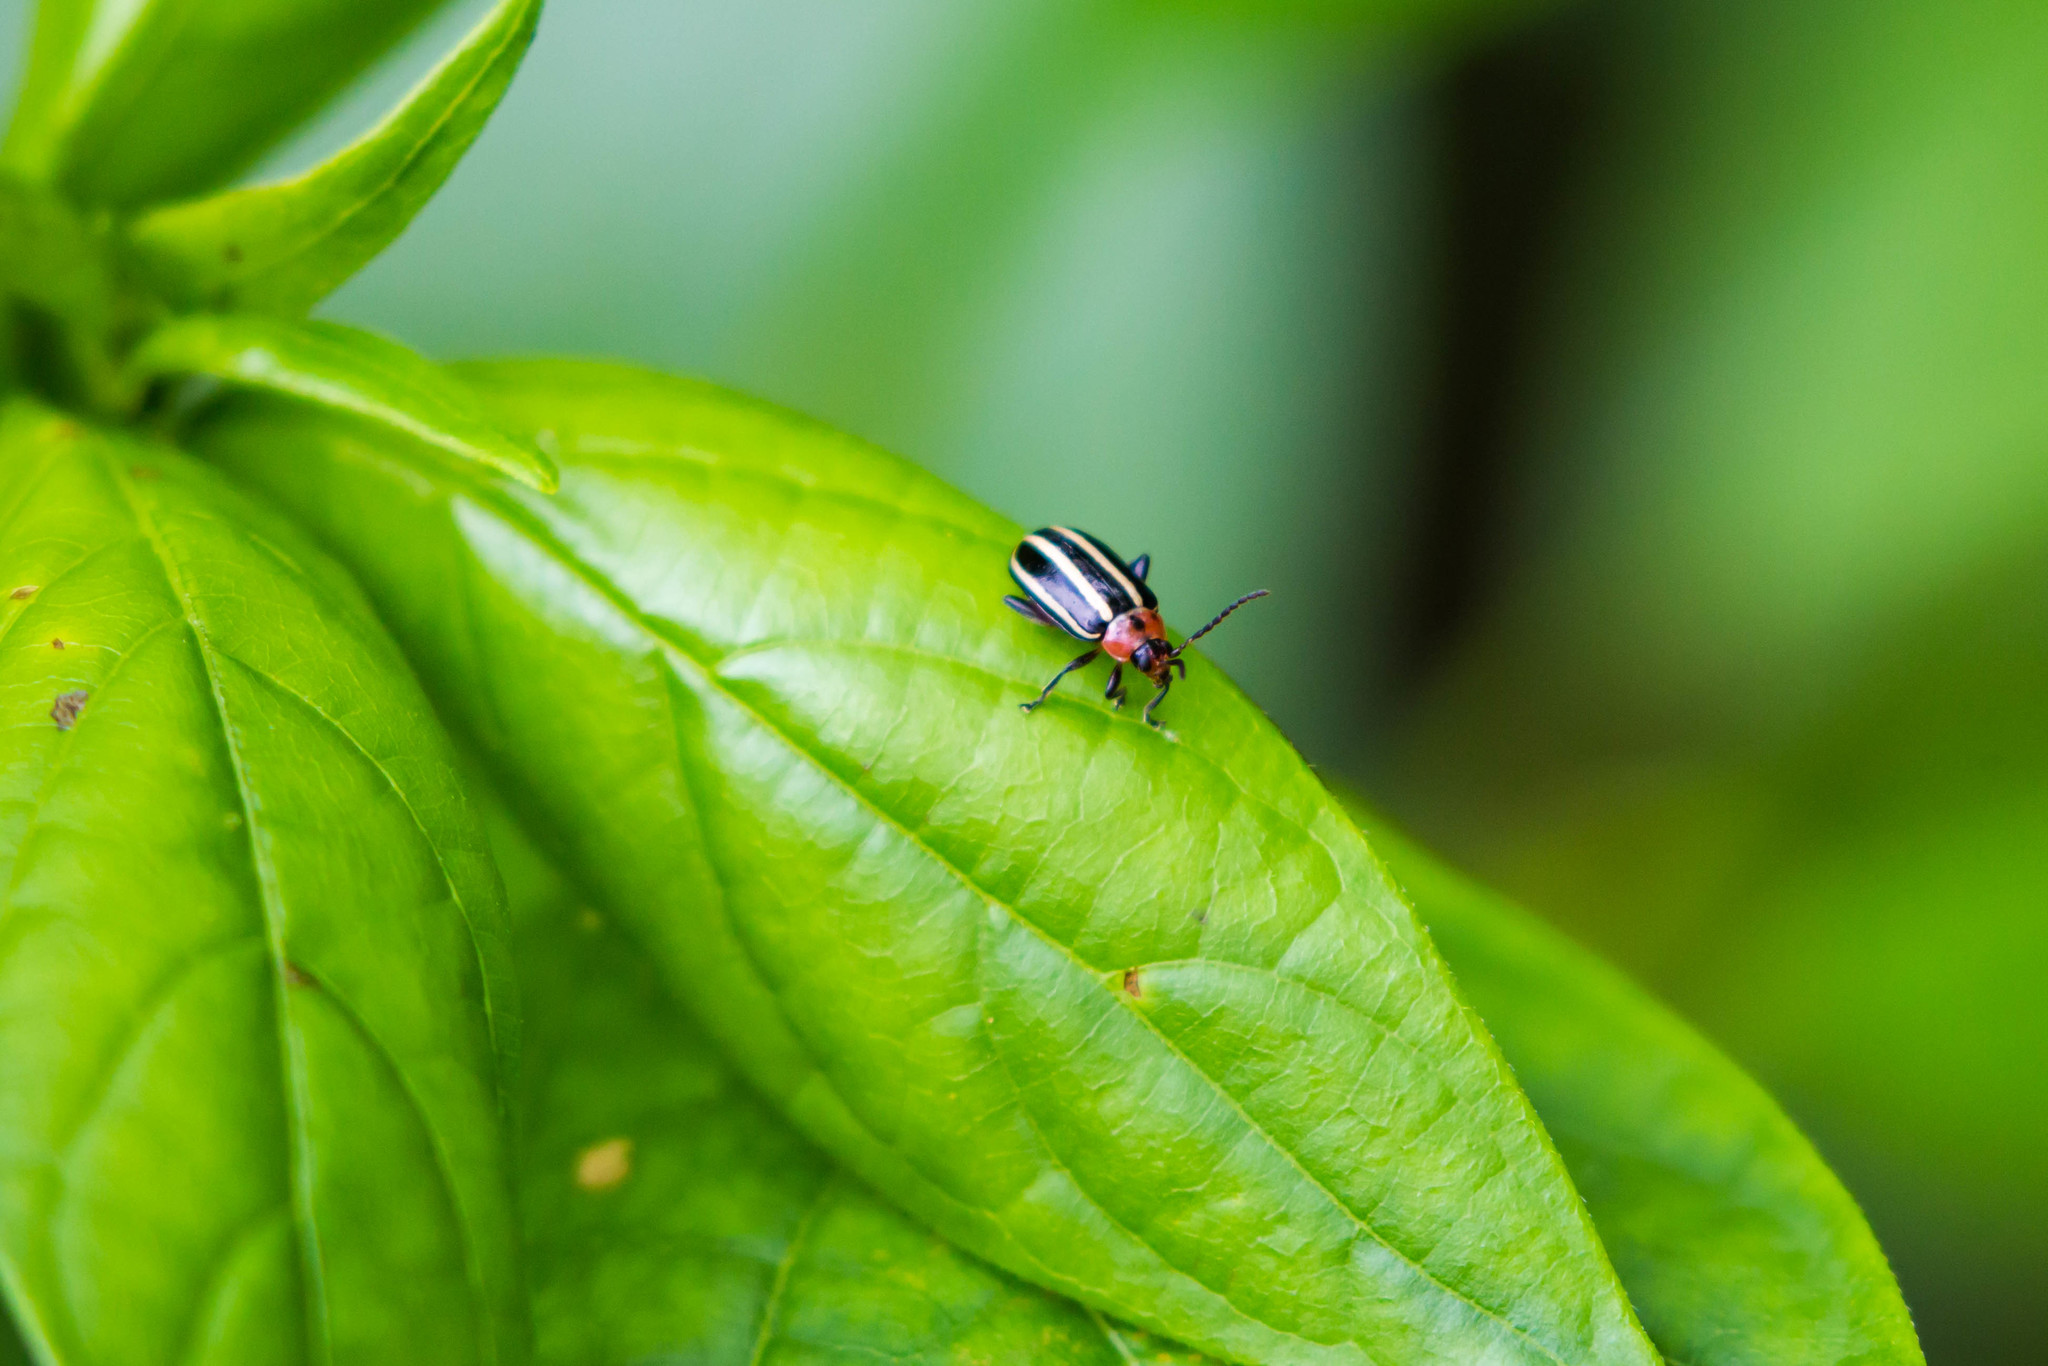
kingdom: Animalia
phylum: Arthropoda
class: Insecta
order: Coleoptera
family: Chrysomelidae
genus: Disonycha
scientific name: Disonycha glabrata
